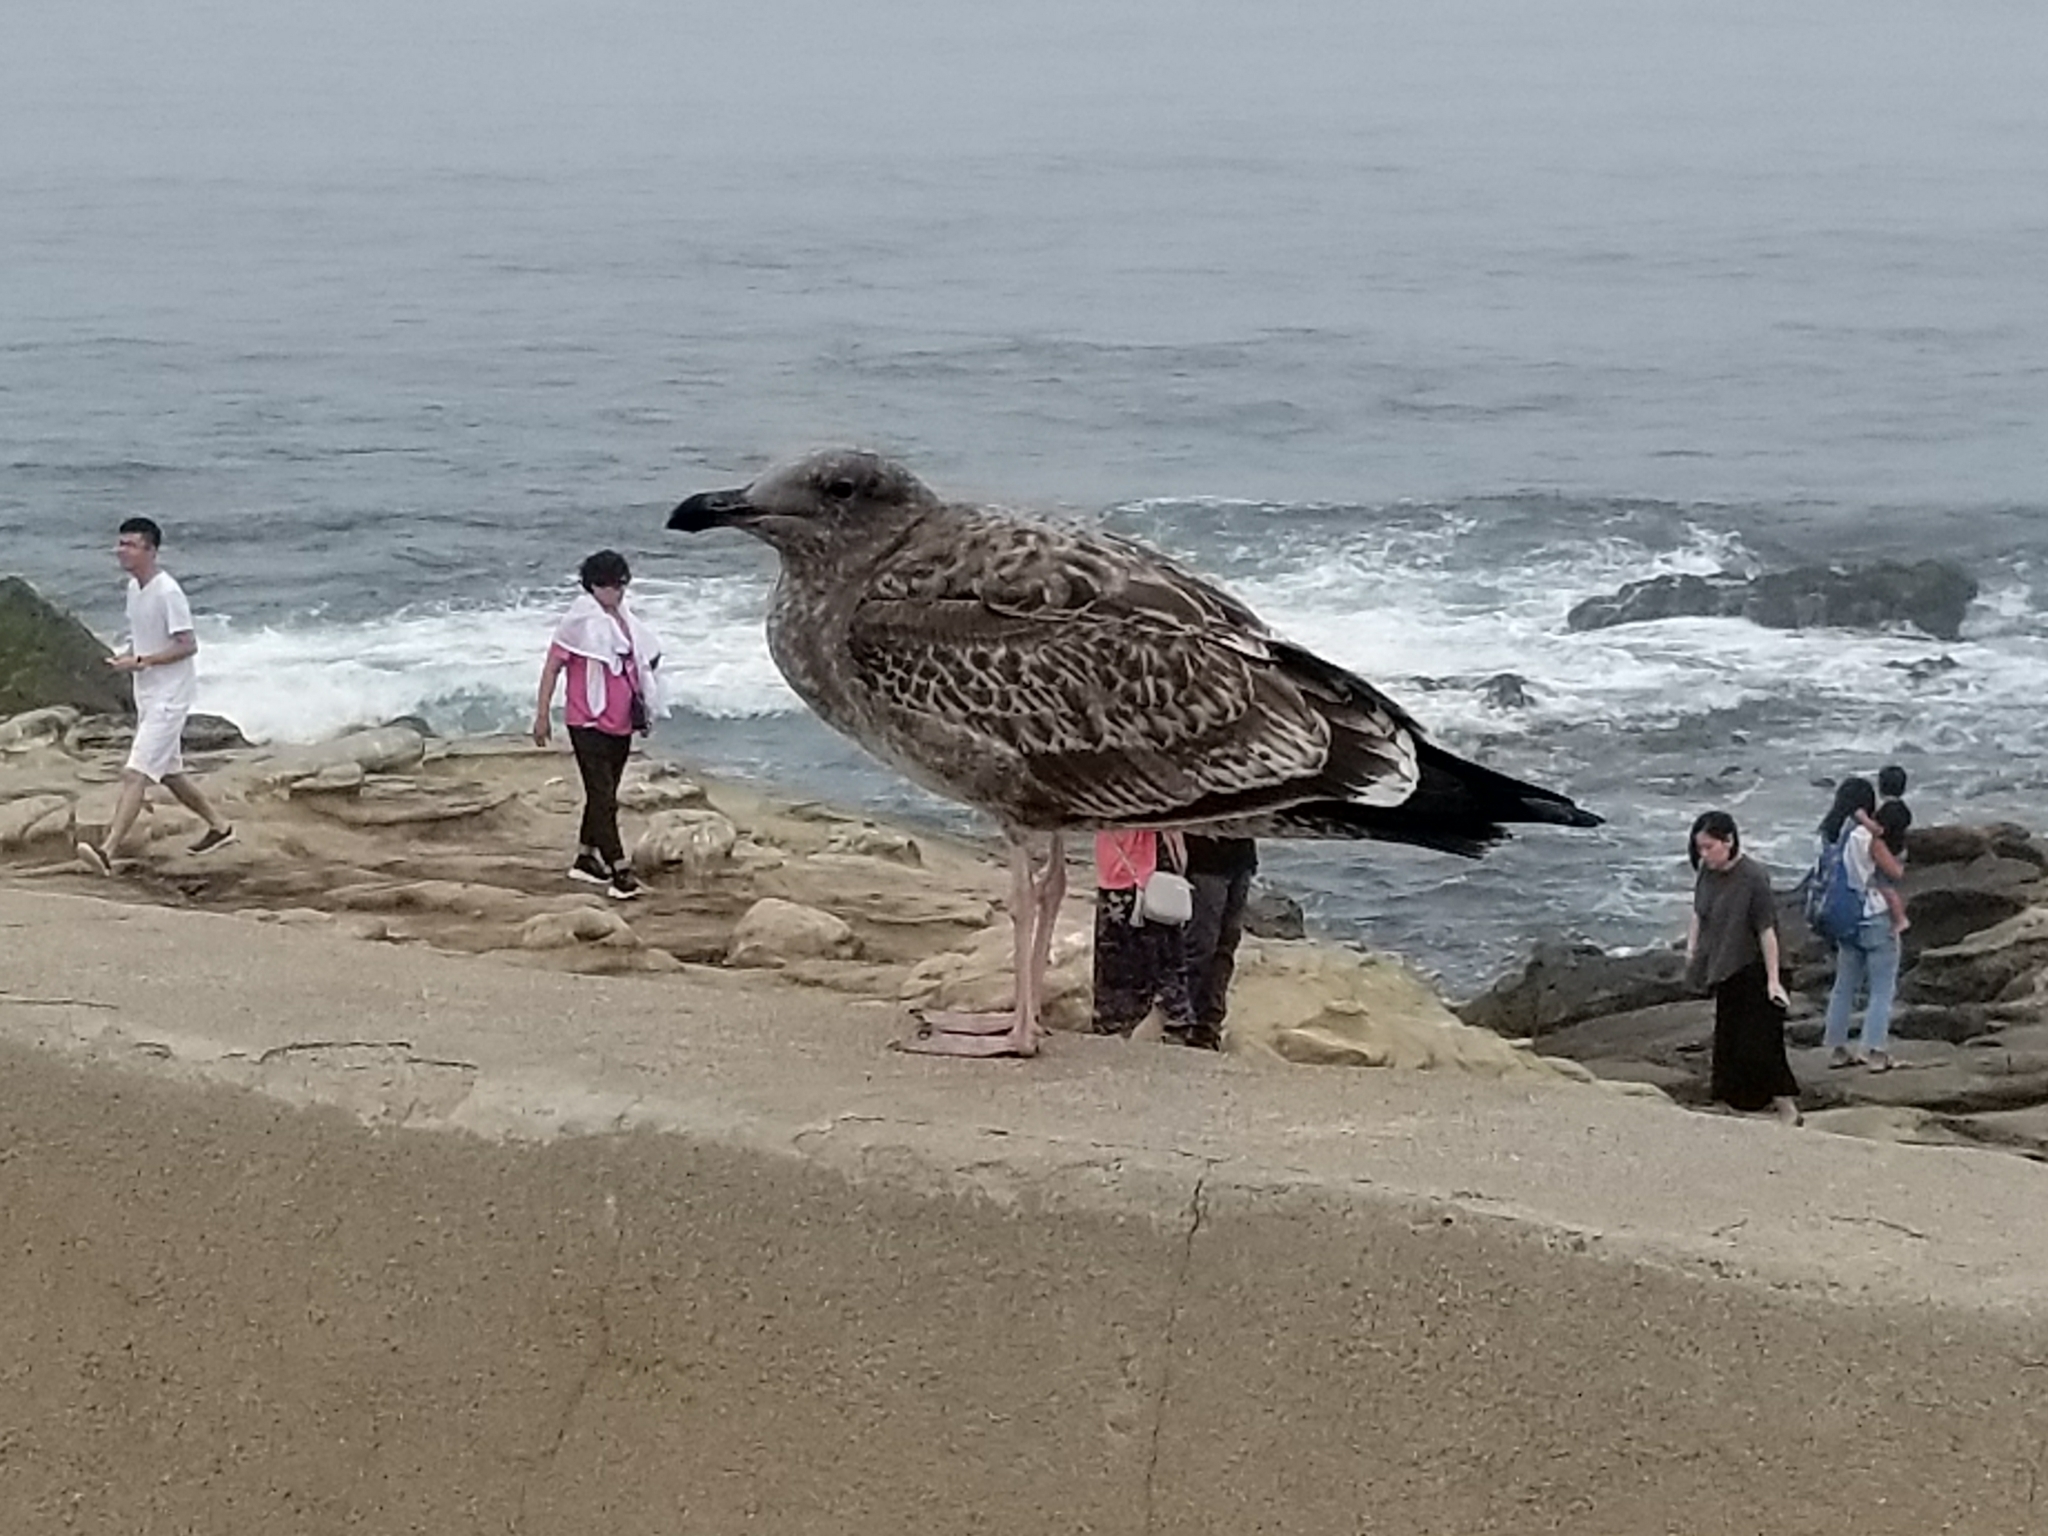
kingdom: Animalia
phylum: Chordata
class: Aves
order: Charadriiformes
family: Laridae
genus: Larus
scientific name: Larus occidentalis
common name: Western gull
